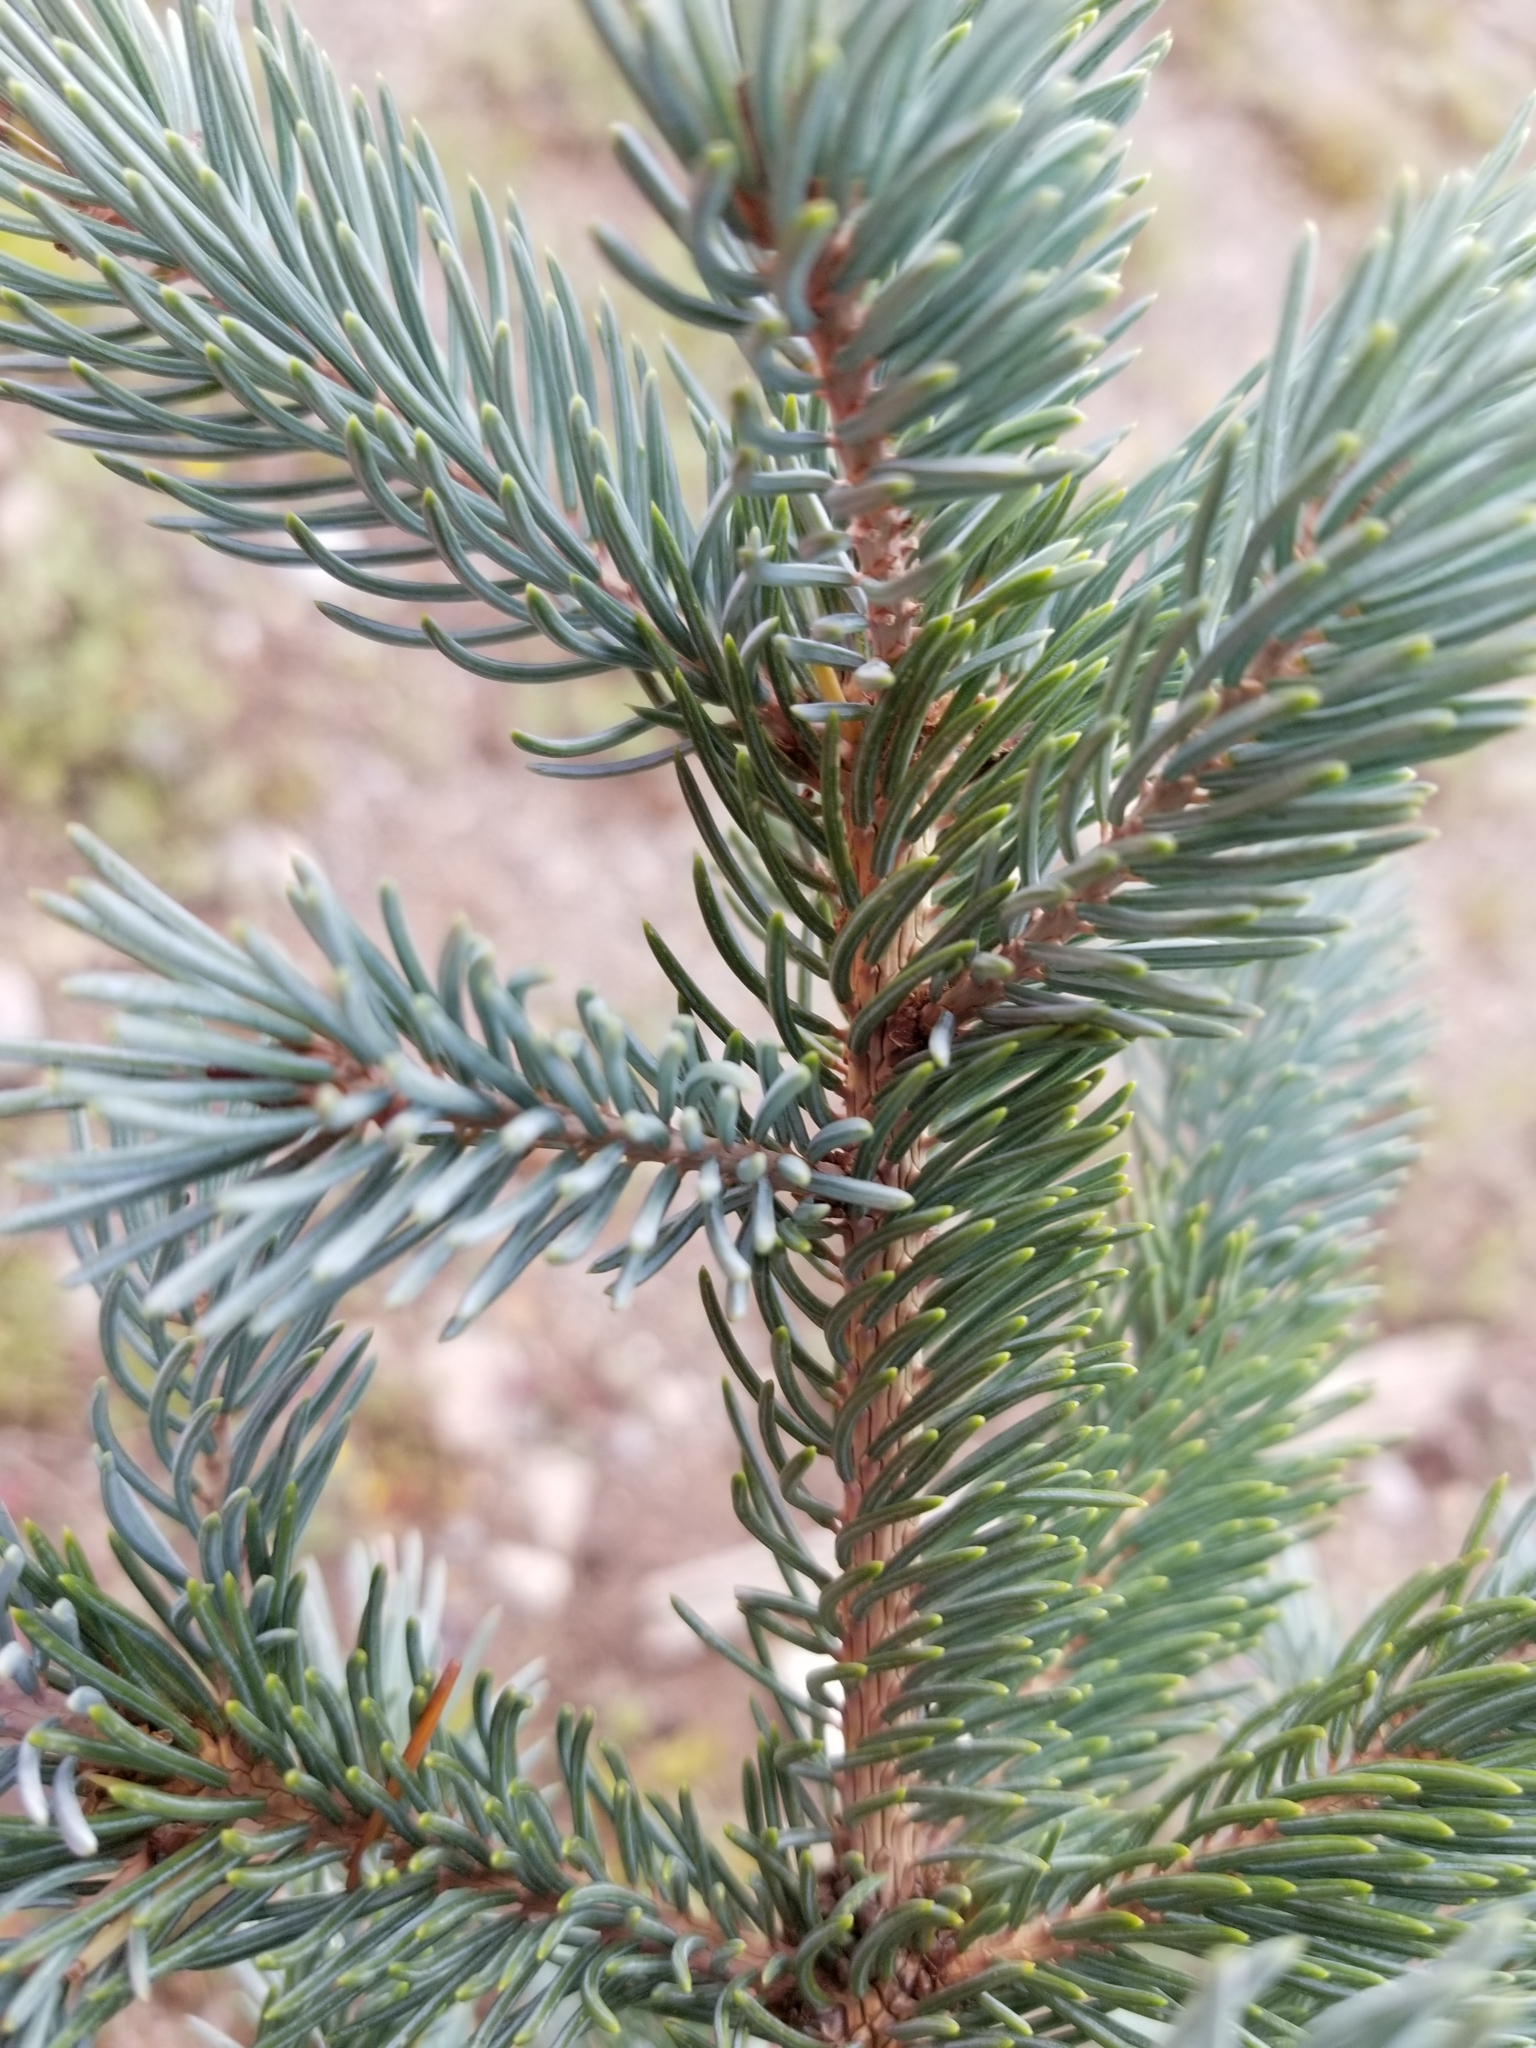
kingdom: Plantae
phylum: Tracheophyta
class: Pinopsida
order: Pinales
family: Pinaceae
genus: Picea
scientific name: Picea pungens
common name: Colorado spruce
